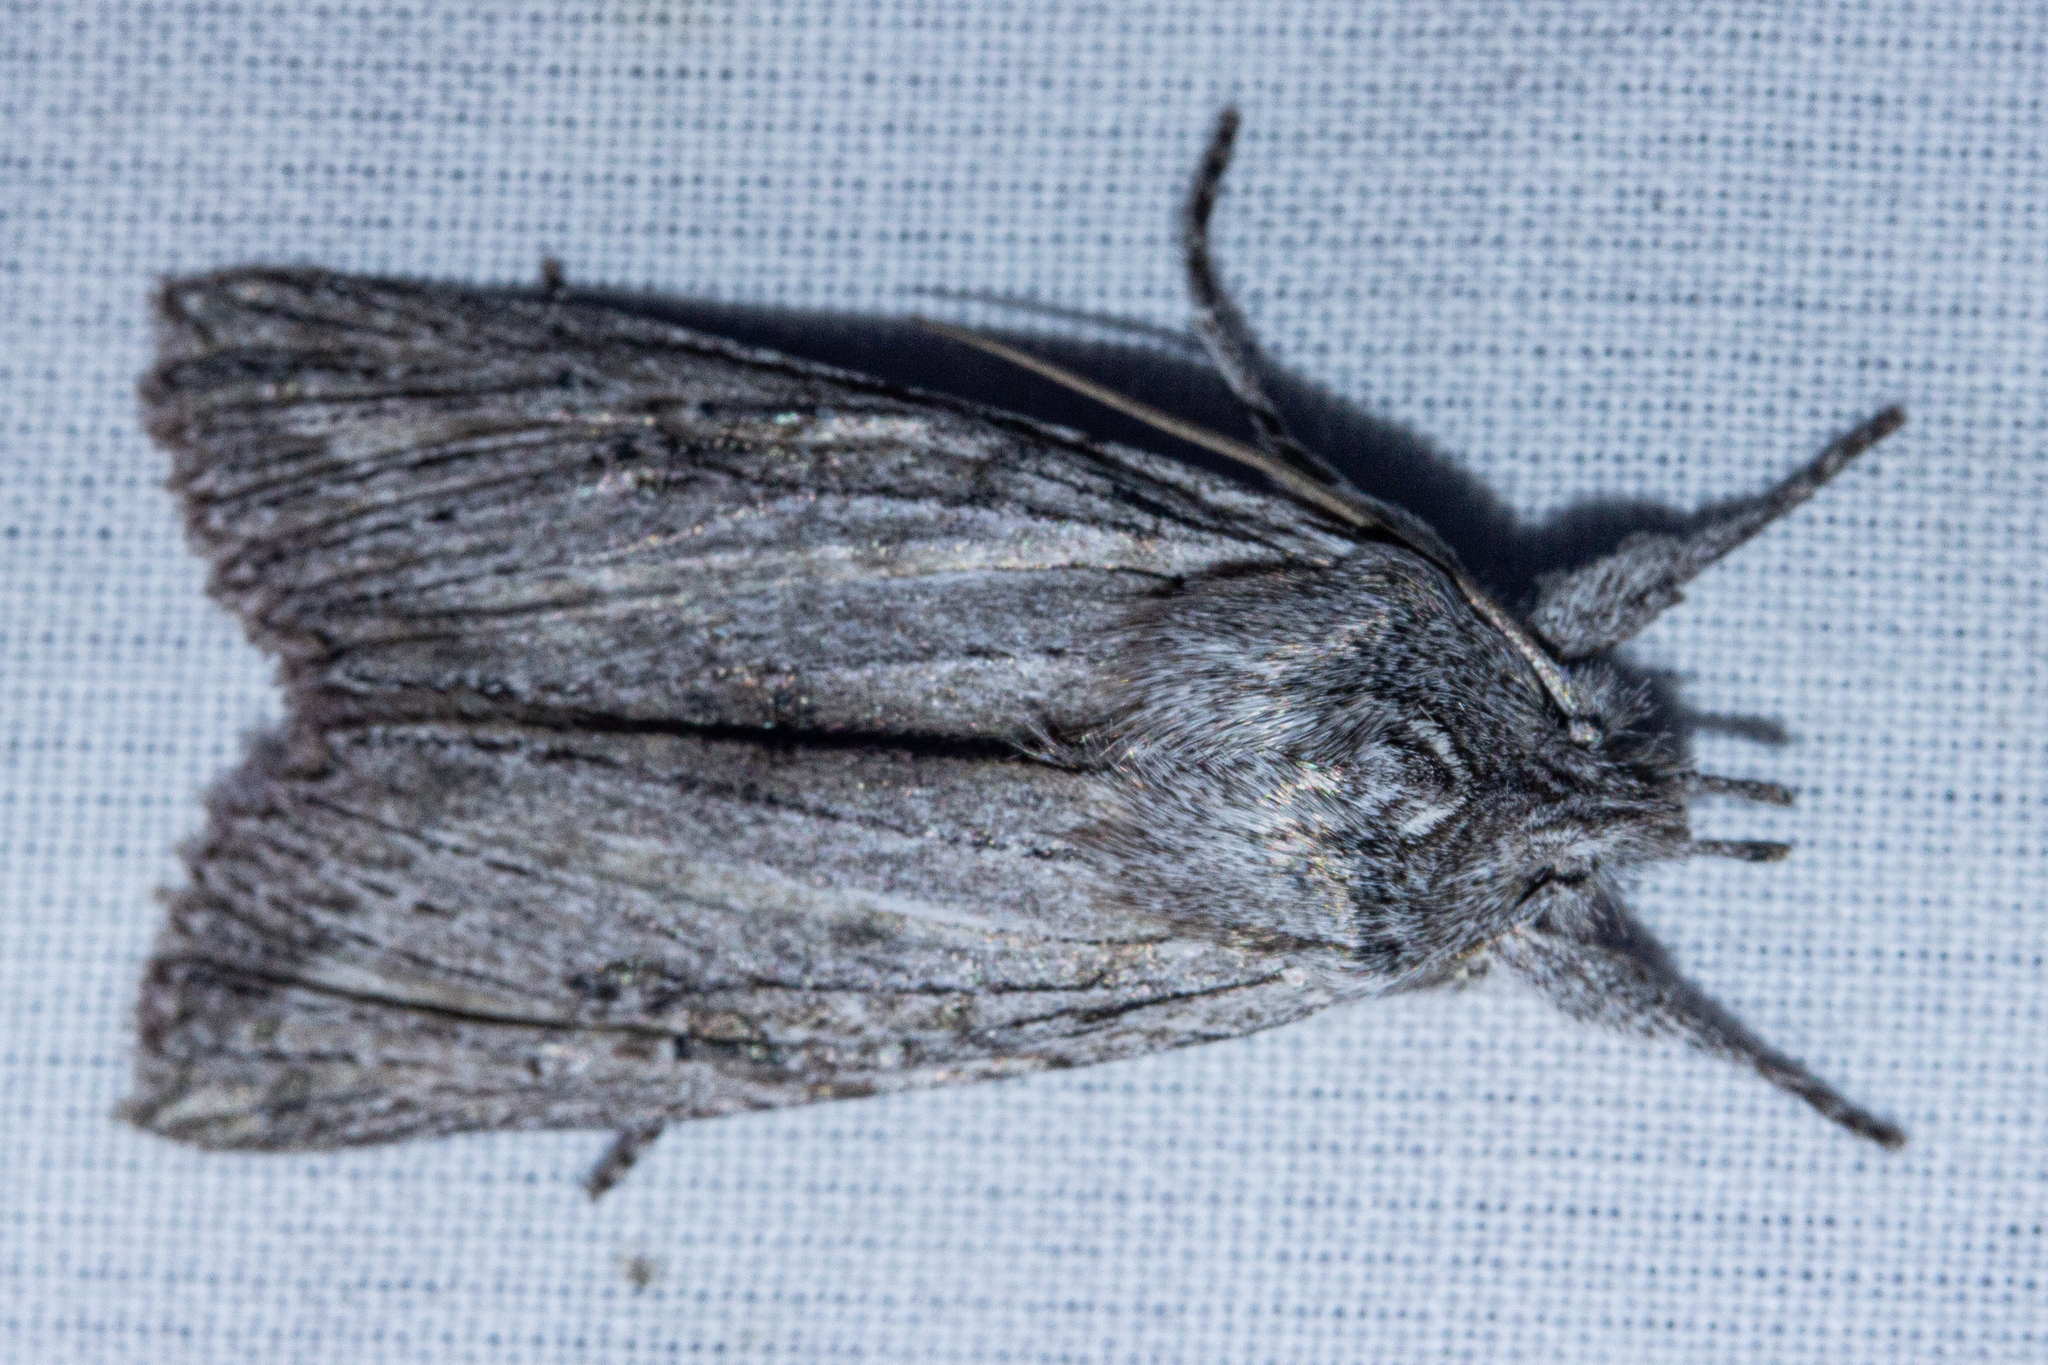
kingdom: Animalia
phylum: Arthropoda
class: Insecta
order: Lepidoptera
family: Noctuidae
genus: Physetica
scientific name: Physetica phricias
